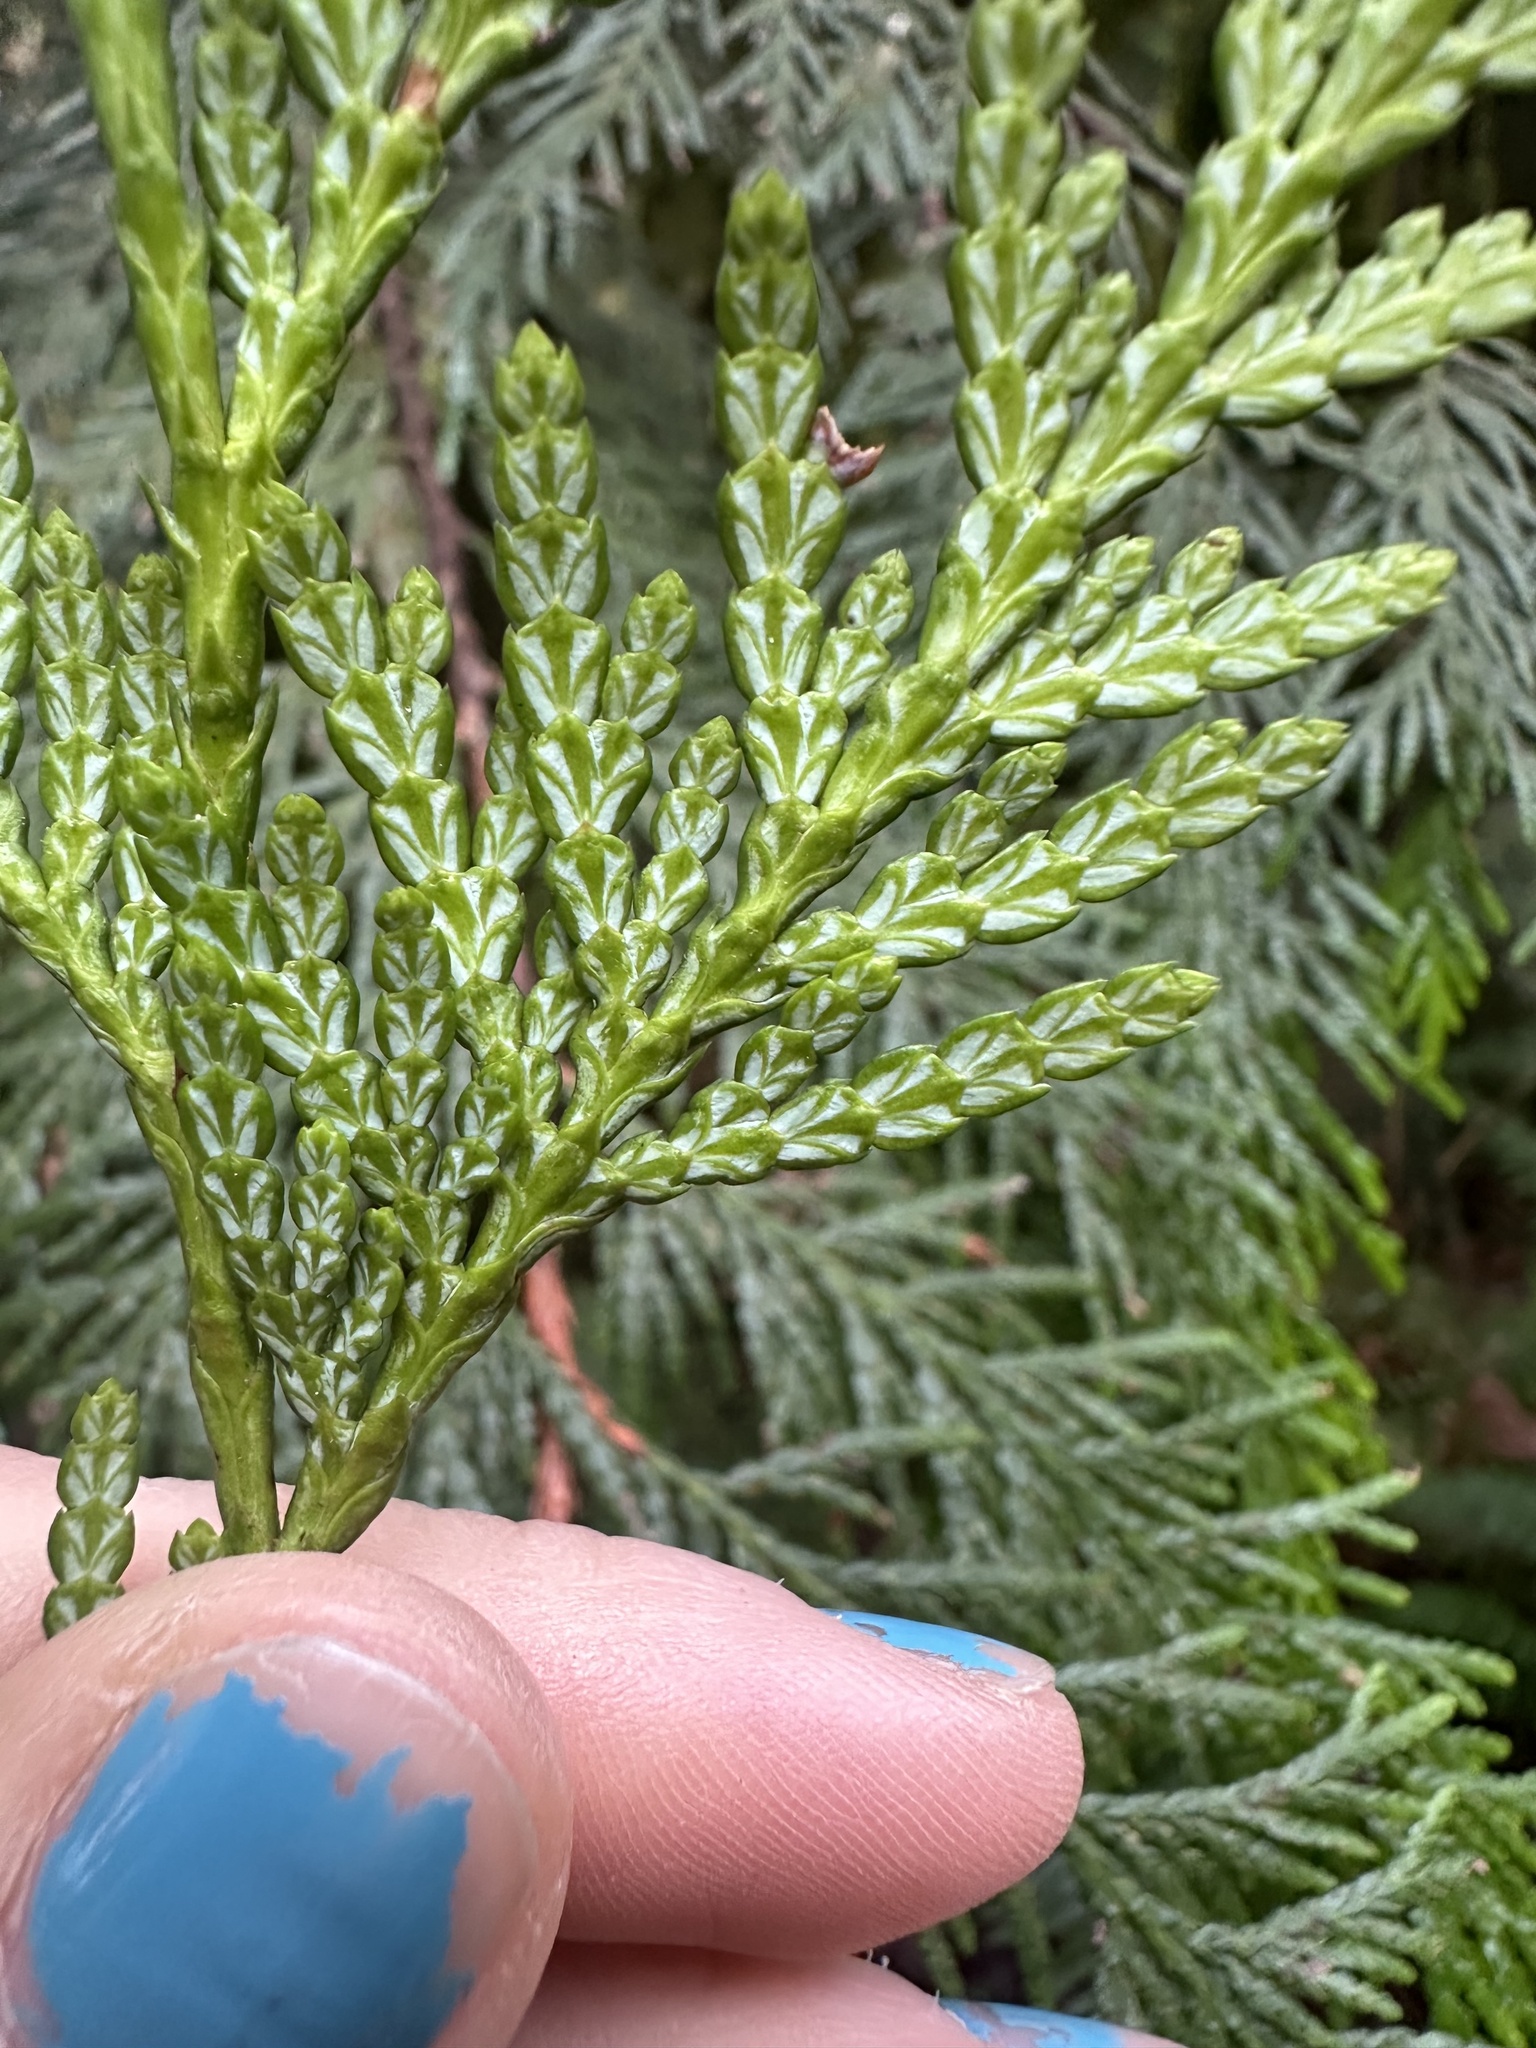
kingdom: Plantae
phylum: Tracheophyta
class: Pinopsida
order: Pinales
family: Cupressaceae
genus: Thuja
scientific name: Thuja plicata
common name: Western red-cedar
